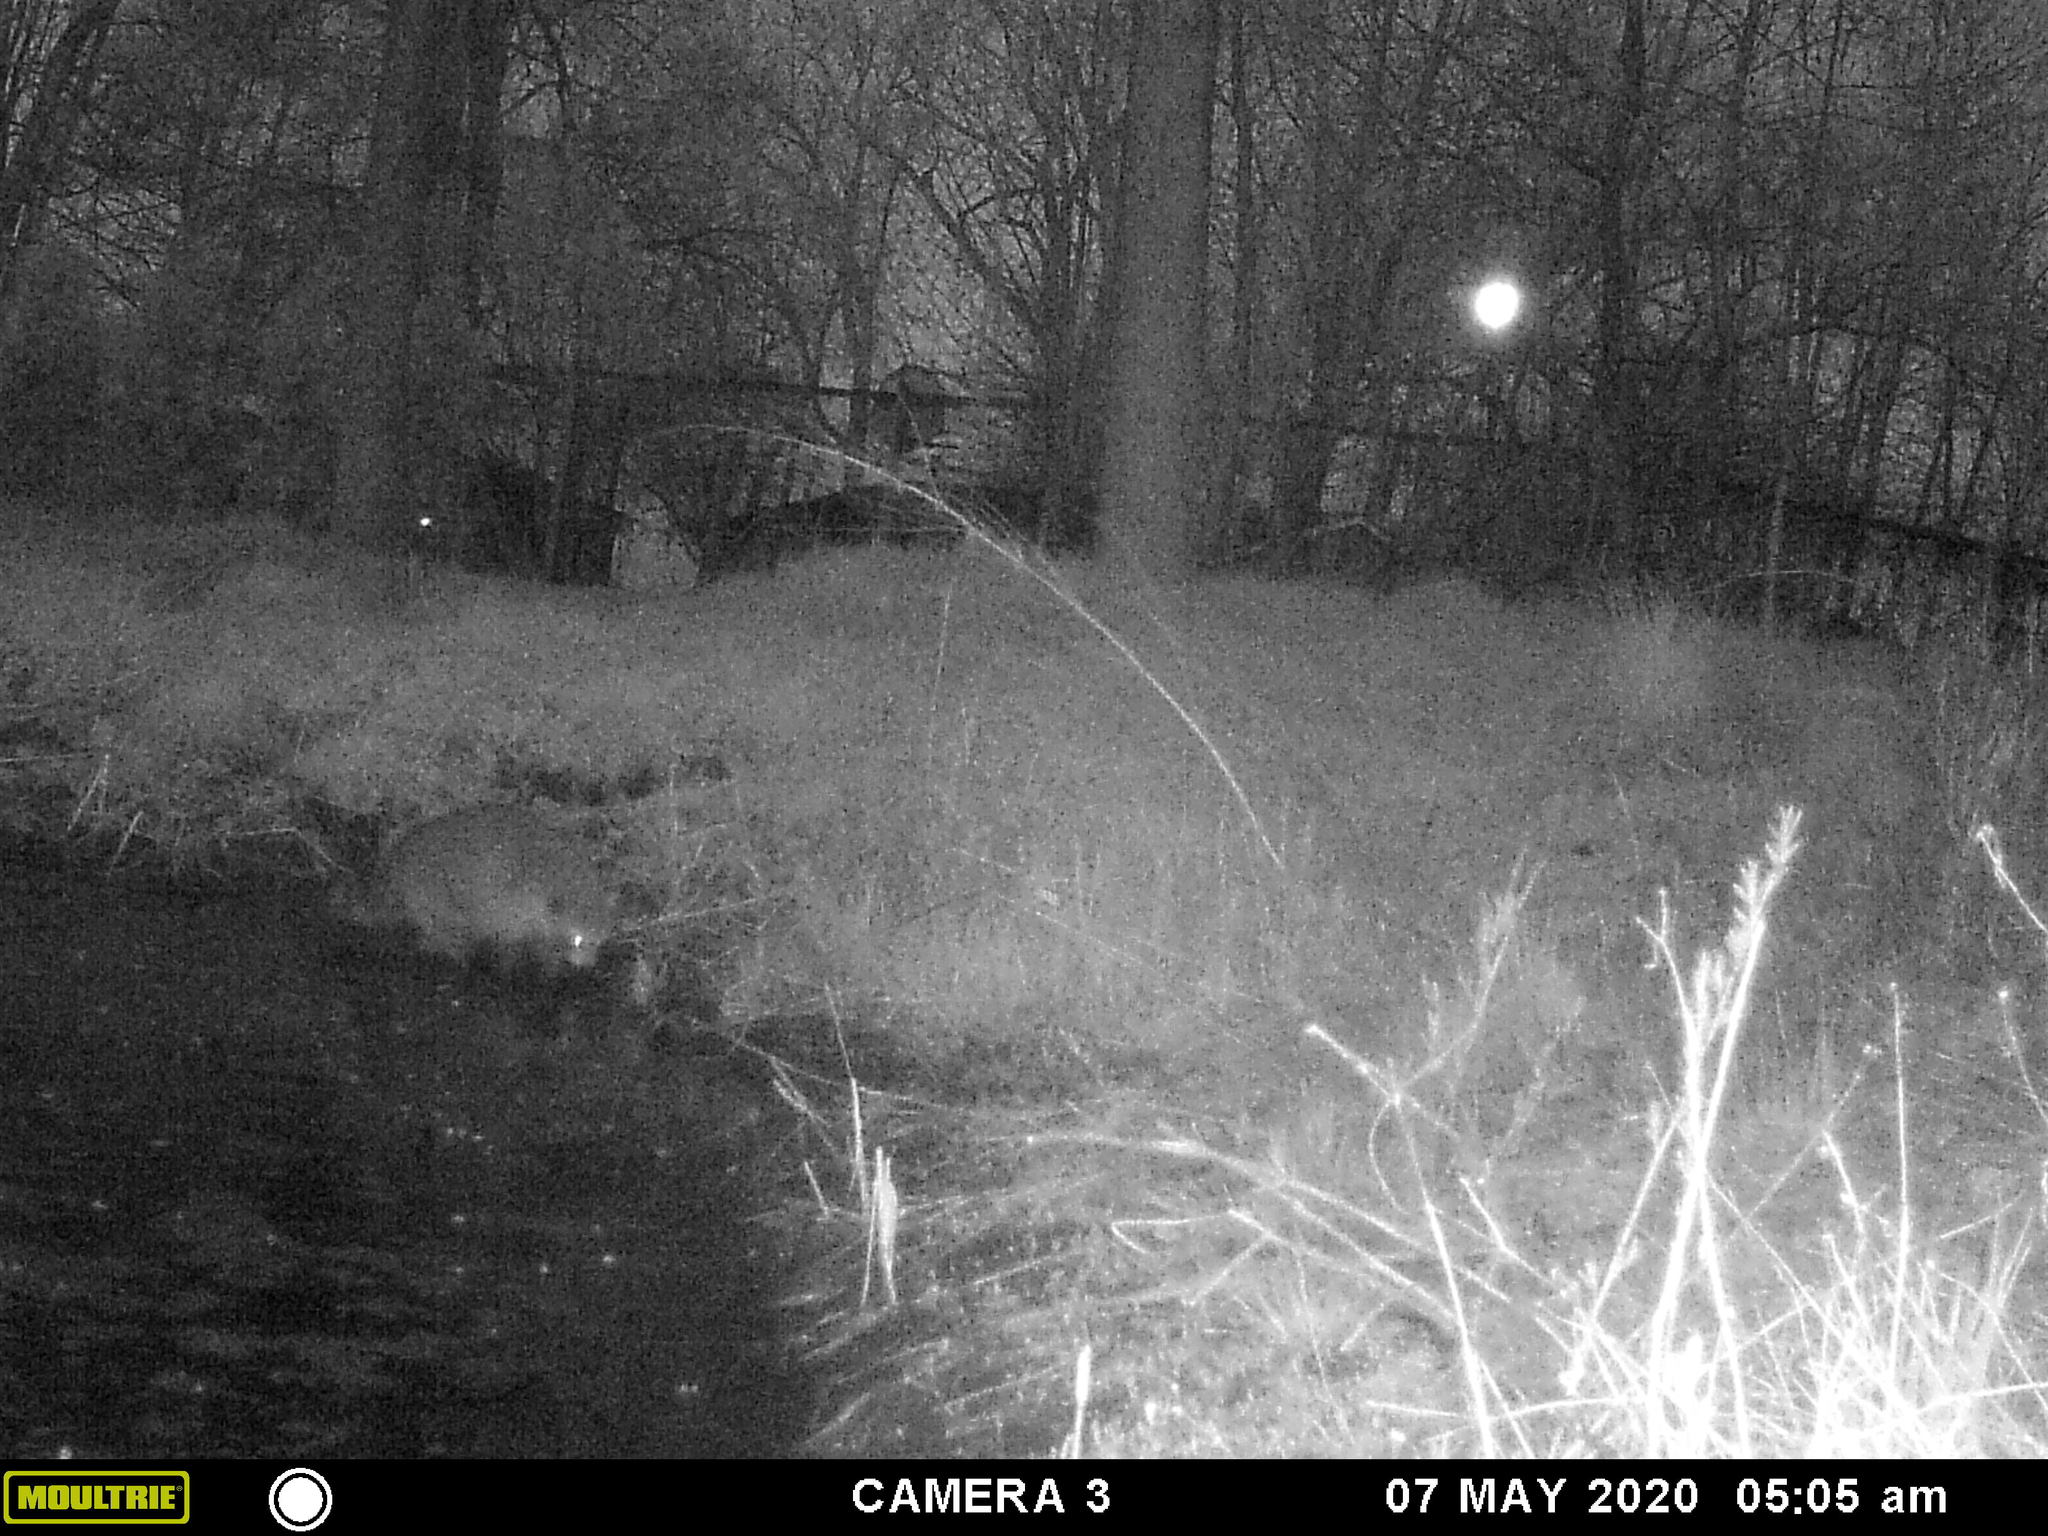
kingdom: Animalia
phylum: Chordata
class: Mammalia
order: Carnivora
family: Procyonidae
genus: Procyon
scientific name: Procyon lotor
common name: Raccoon
